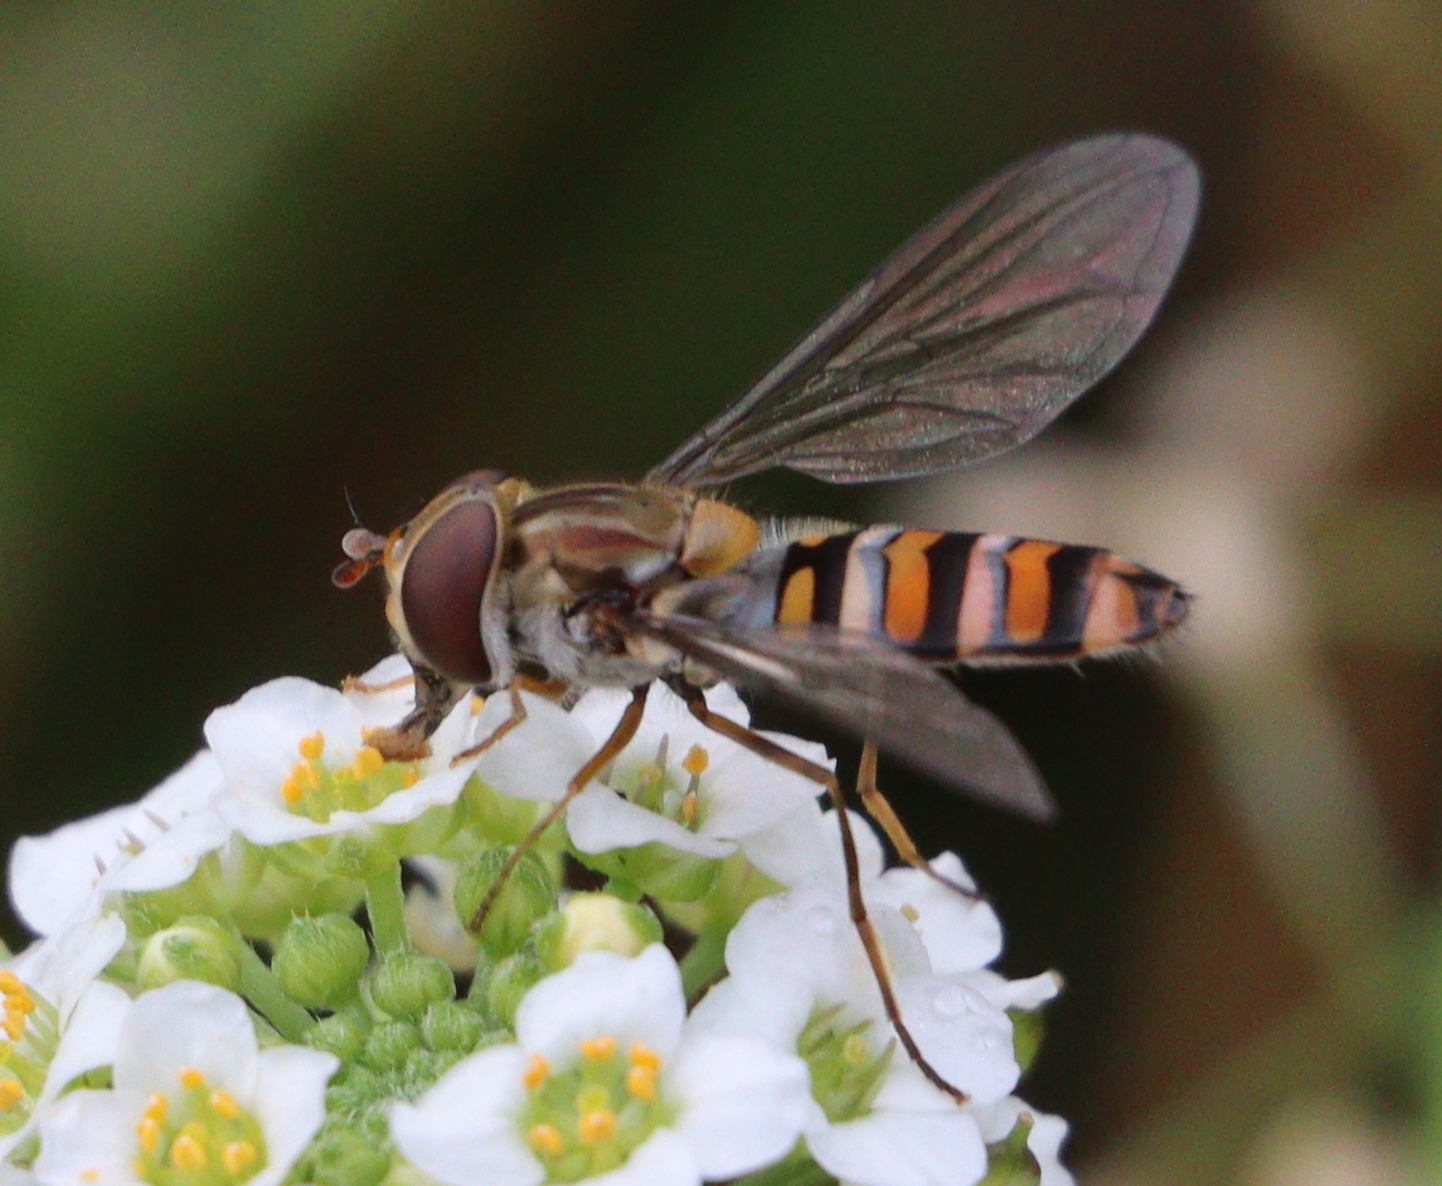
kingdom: Animalia
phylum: Arthropoda
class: Insecta
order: Diptera
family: Syrphidae
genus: Episyrphus
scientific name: Episyrphus balteatus
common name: Marmalade hoverfly
